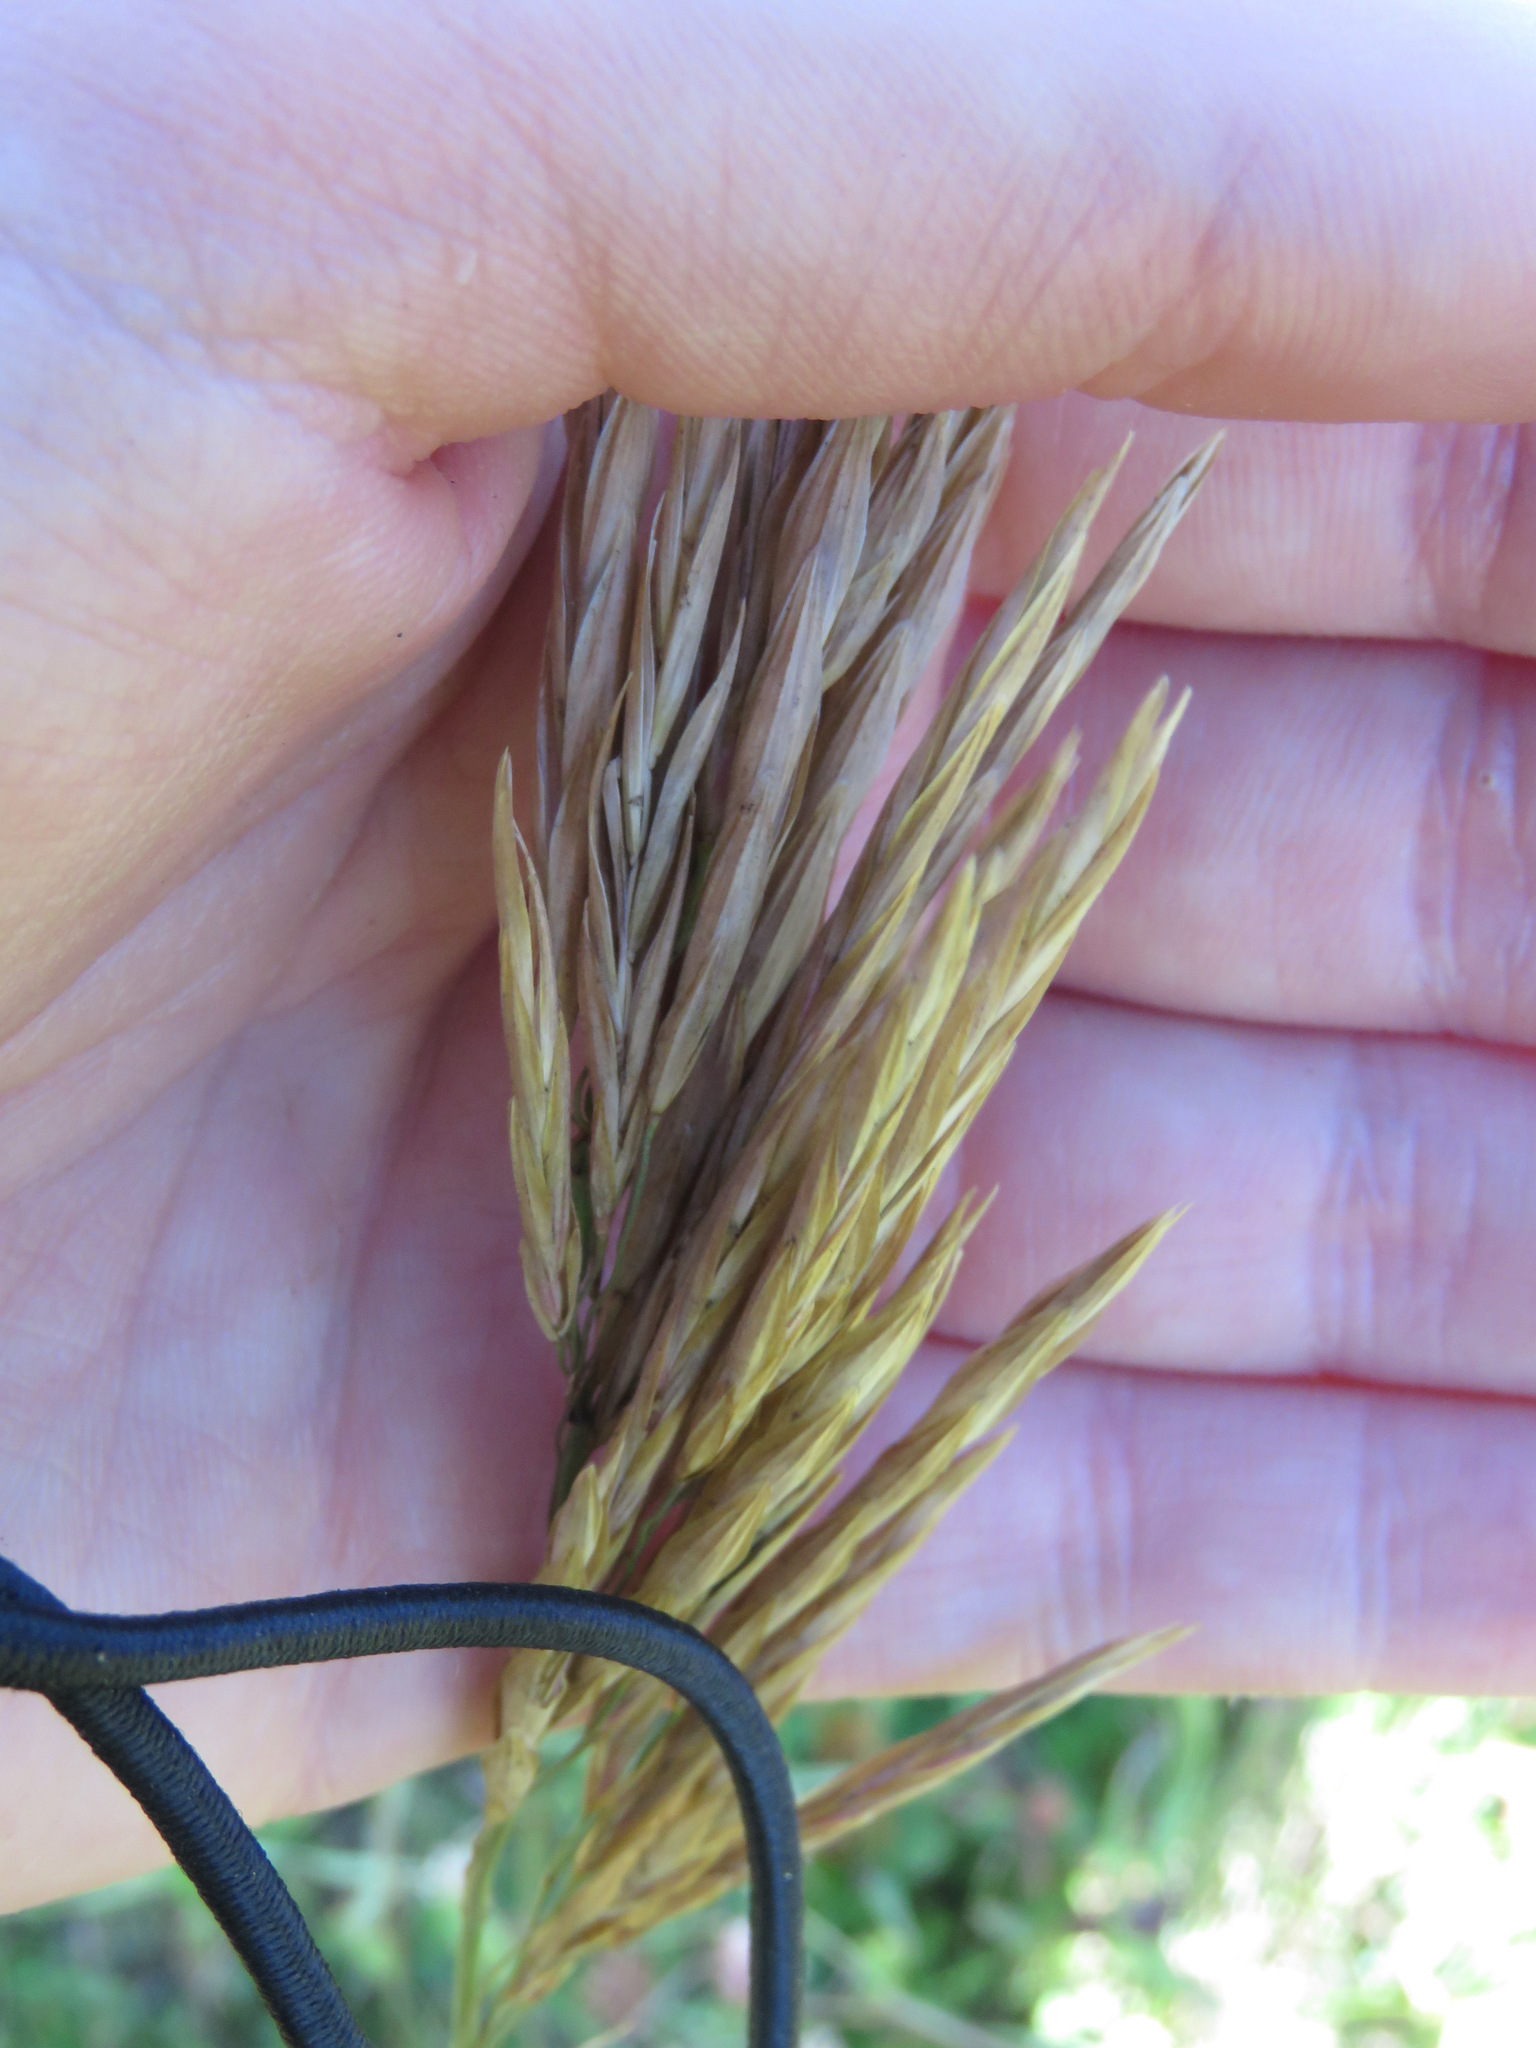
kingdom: Plantae
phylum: Tracheophyta
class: Liliopsida
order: Poales
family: Poaceae
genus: Bromus
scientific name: Bromus inermis
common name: Smooth brome
